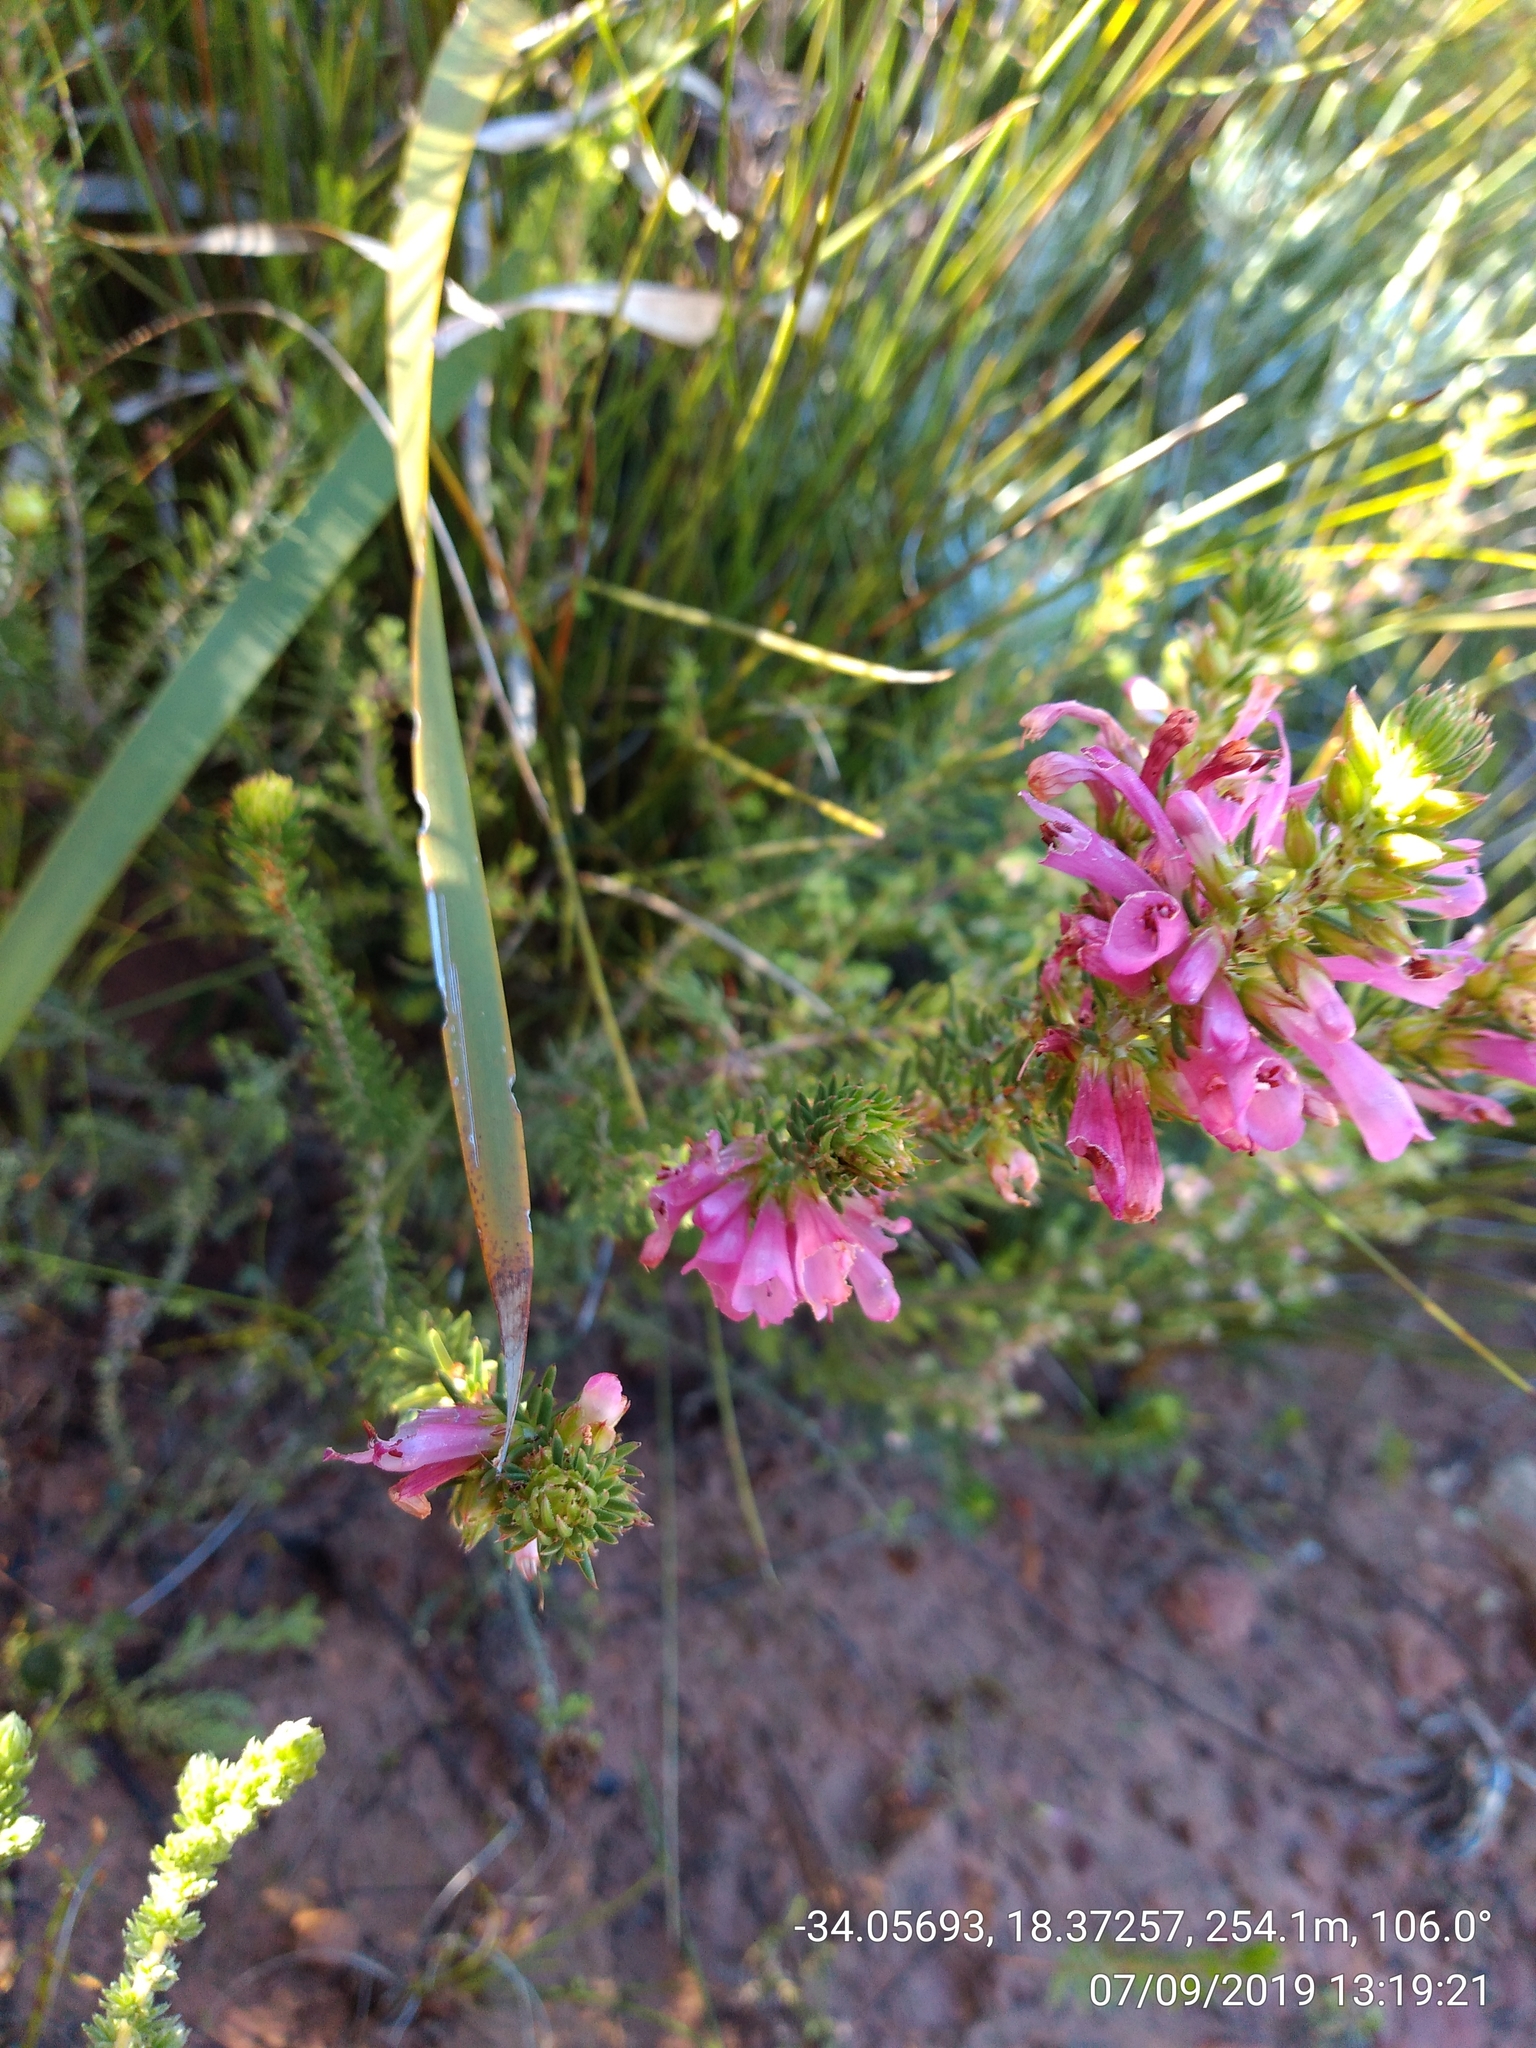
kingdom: Plantae
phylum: Tracheophyta
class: Magnoliopsida
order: Ericales
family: Ericaceae
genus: Erica
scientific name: Erica abietina
